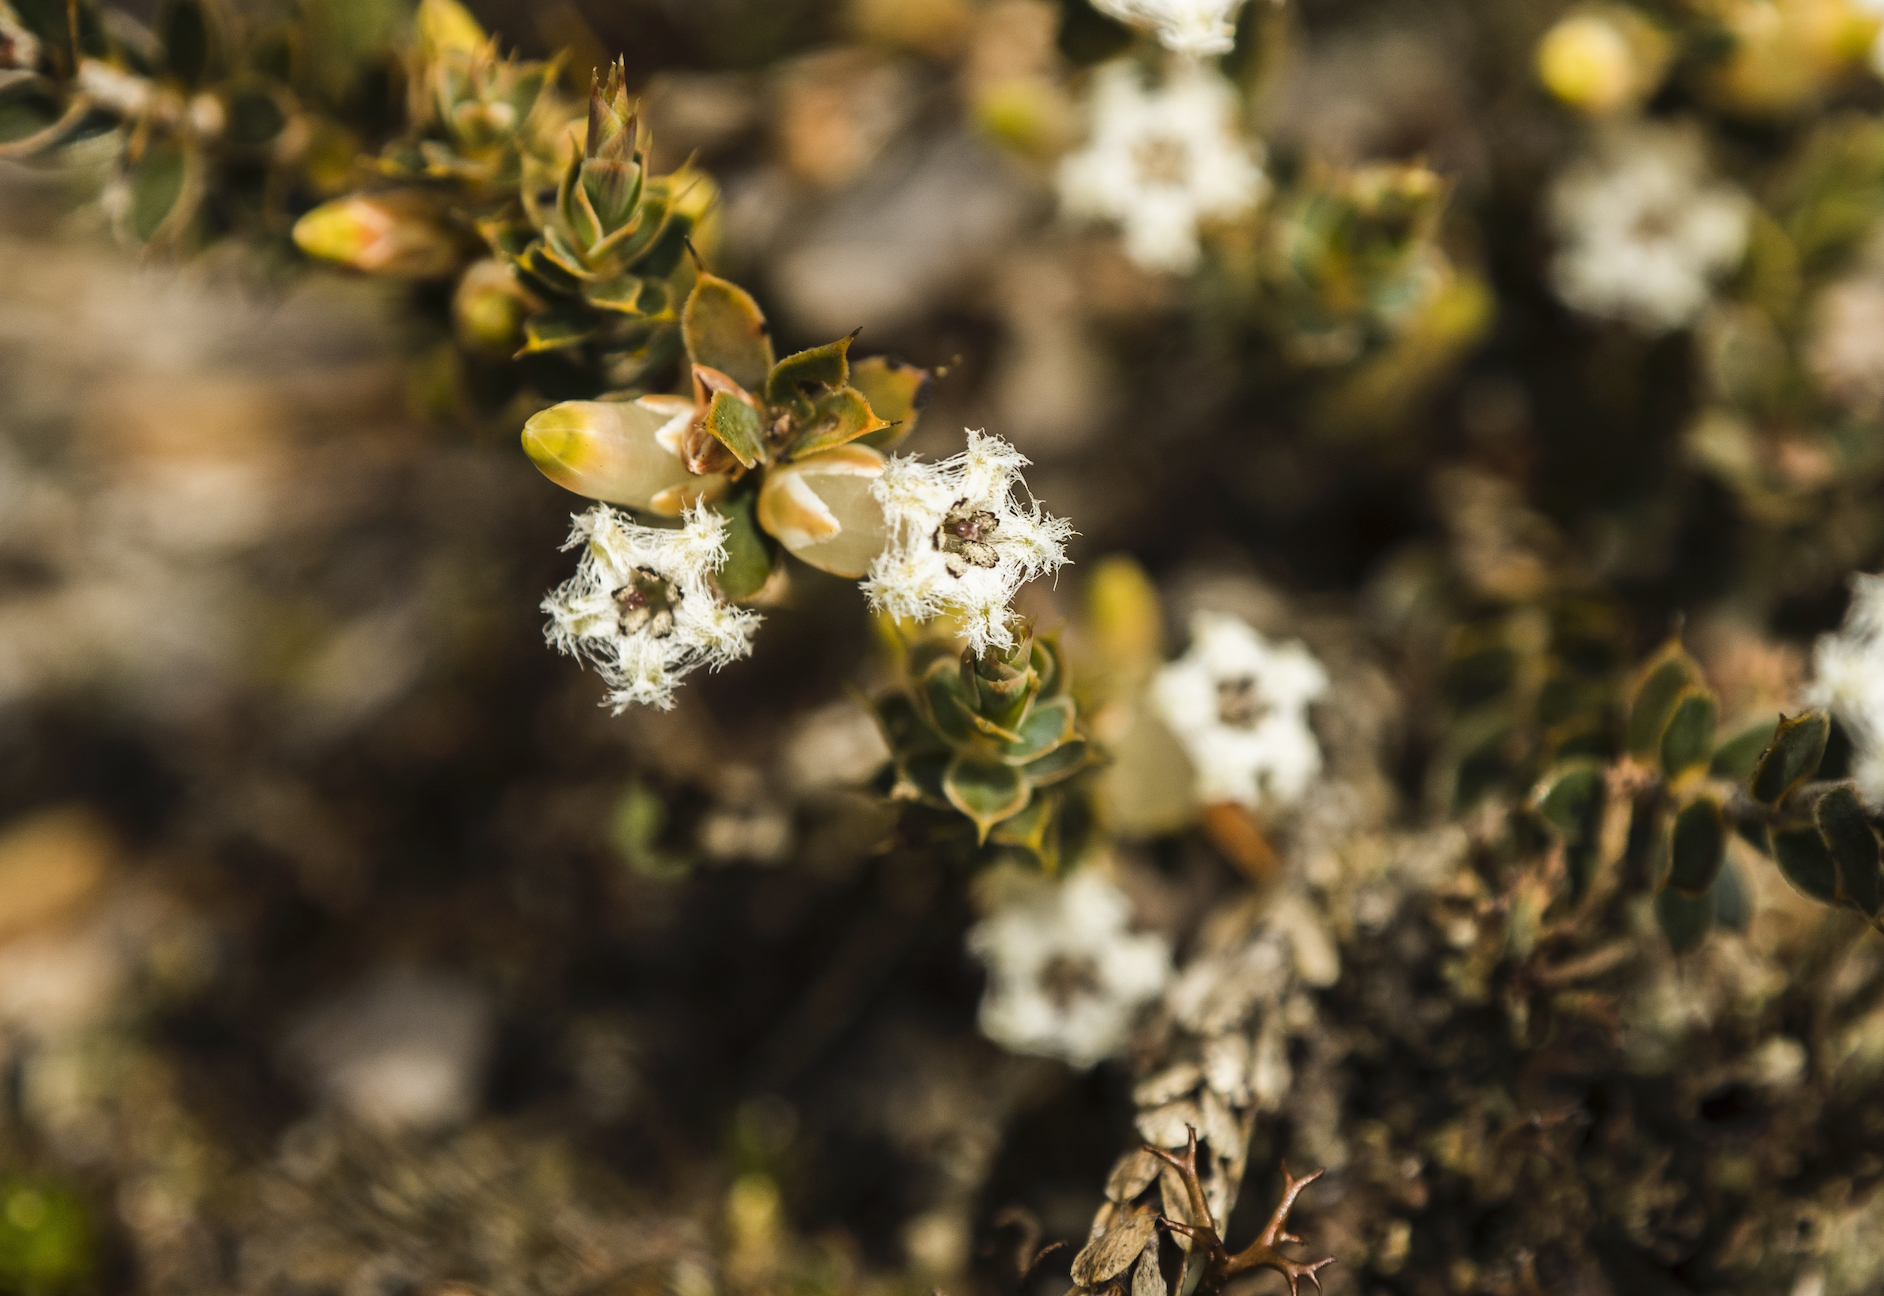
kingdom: Plantae
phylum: Tracheophyta
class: Magnoliopsida
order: Ericales
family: Ericaceae
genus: Styphelia
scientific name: Styphelia nesophila
